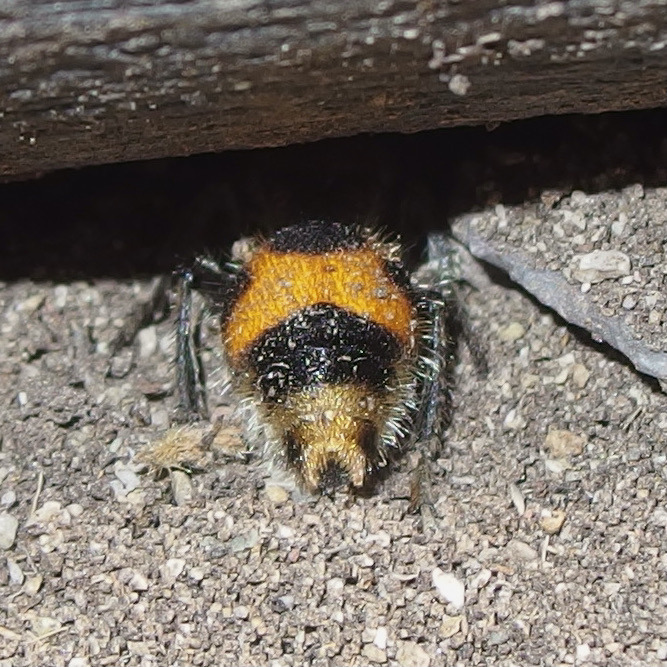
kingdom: Animalia
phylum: Arthropoda
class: Insecta
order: Hymenoptera
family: Mutillidae
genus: Dasymutilla
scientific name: Dasymutilla pulchra
